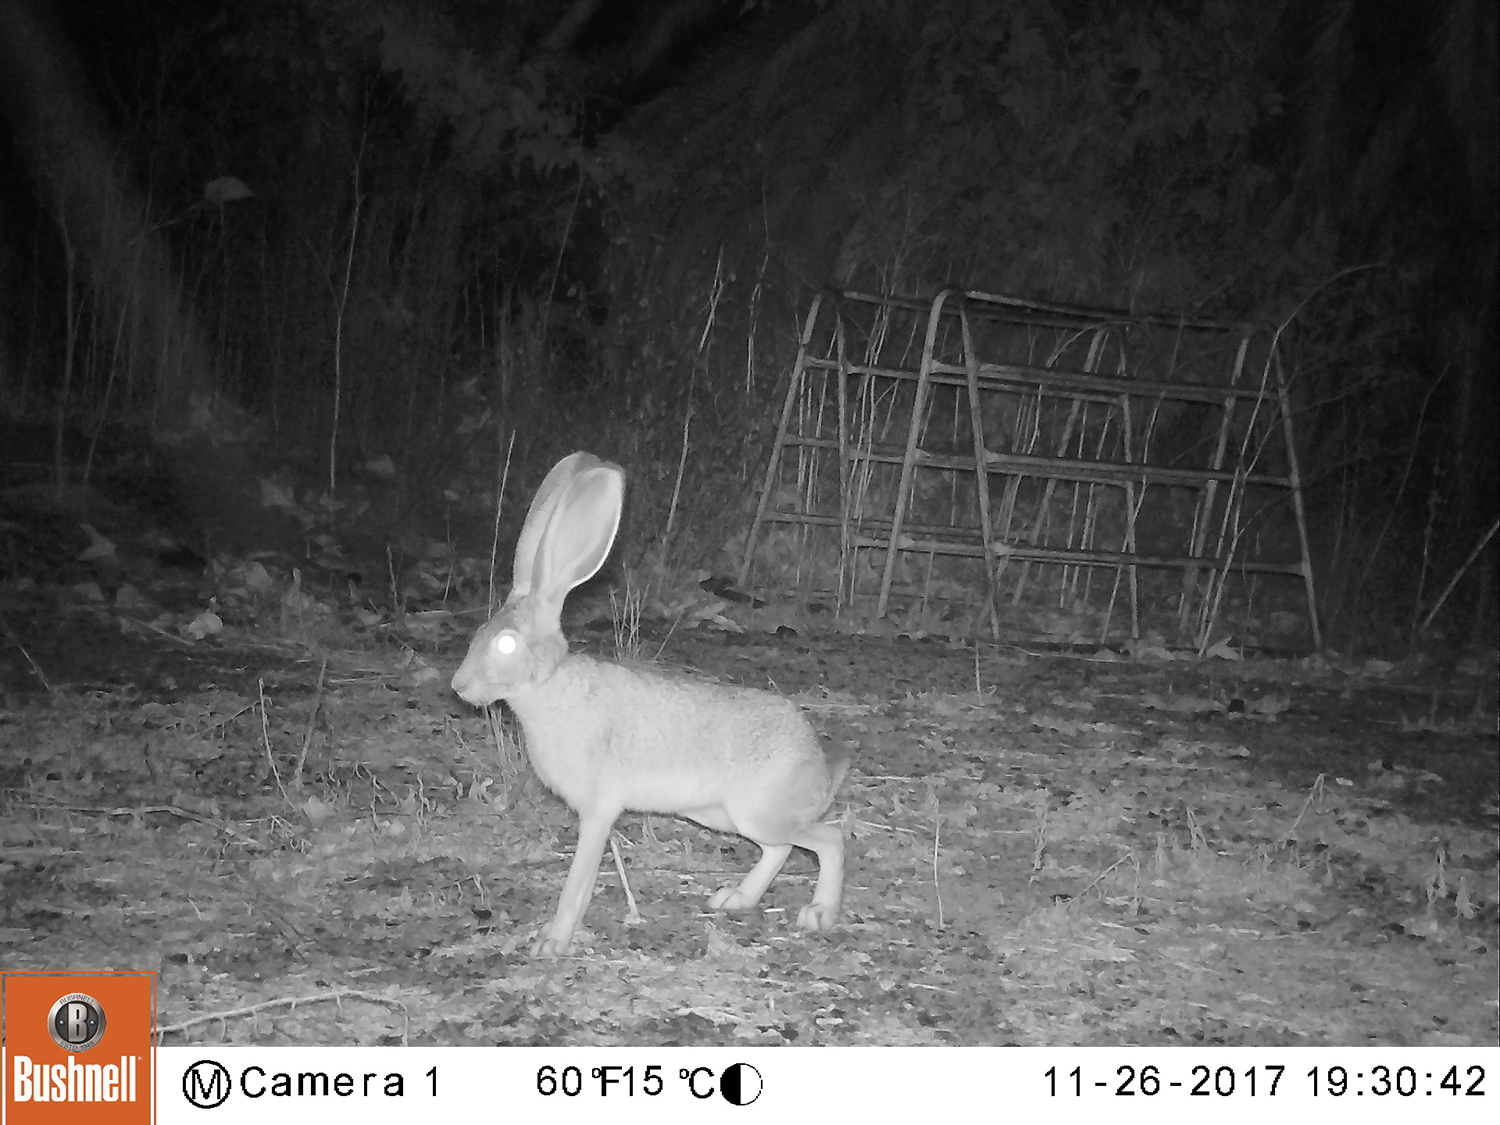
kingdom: Animalia
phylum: Chordata
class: Mammalia
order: Lagomorpha
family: Leporidae
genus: Lepus
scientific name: Lepus californicus
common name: Black-tailed jackrabbit
